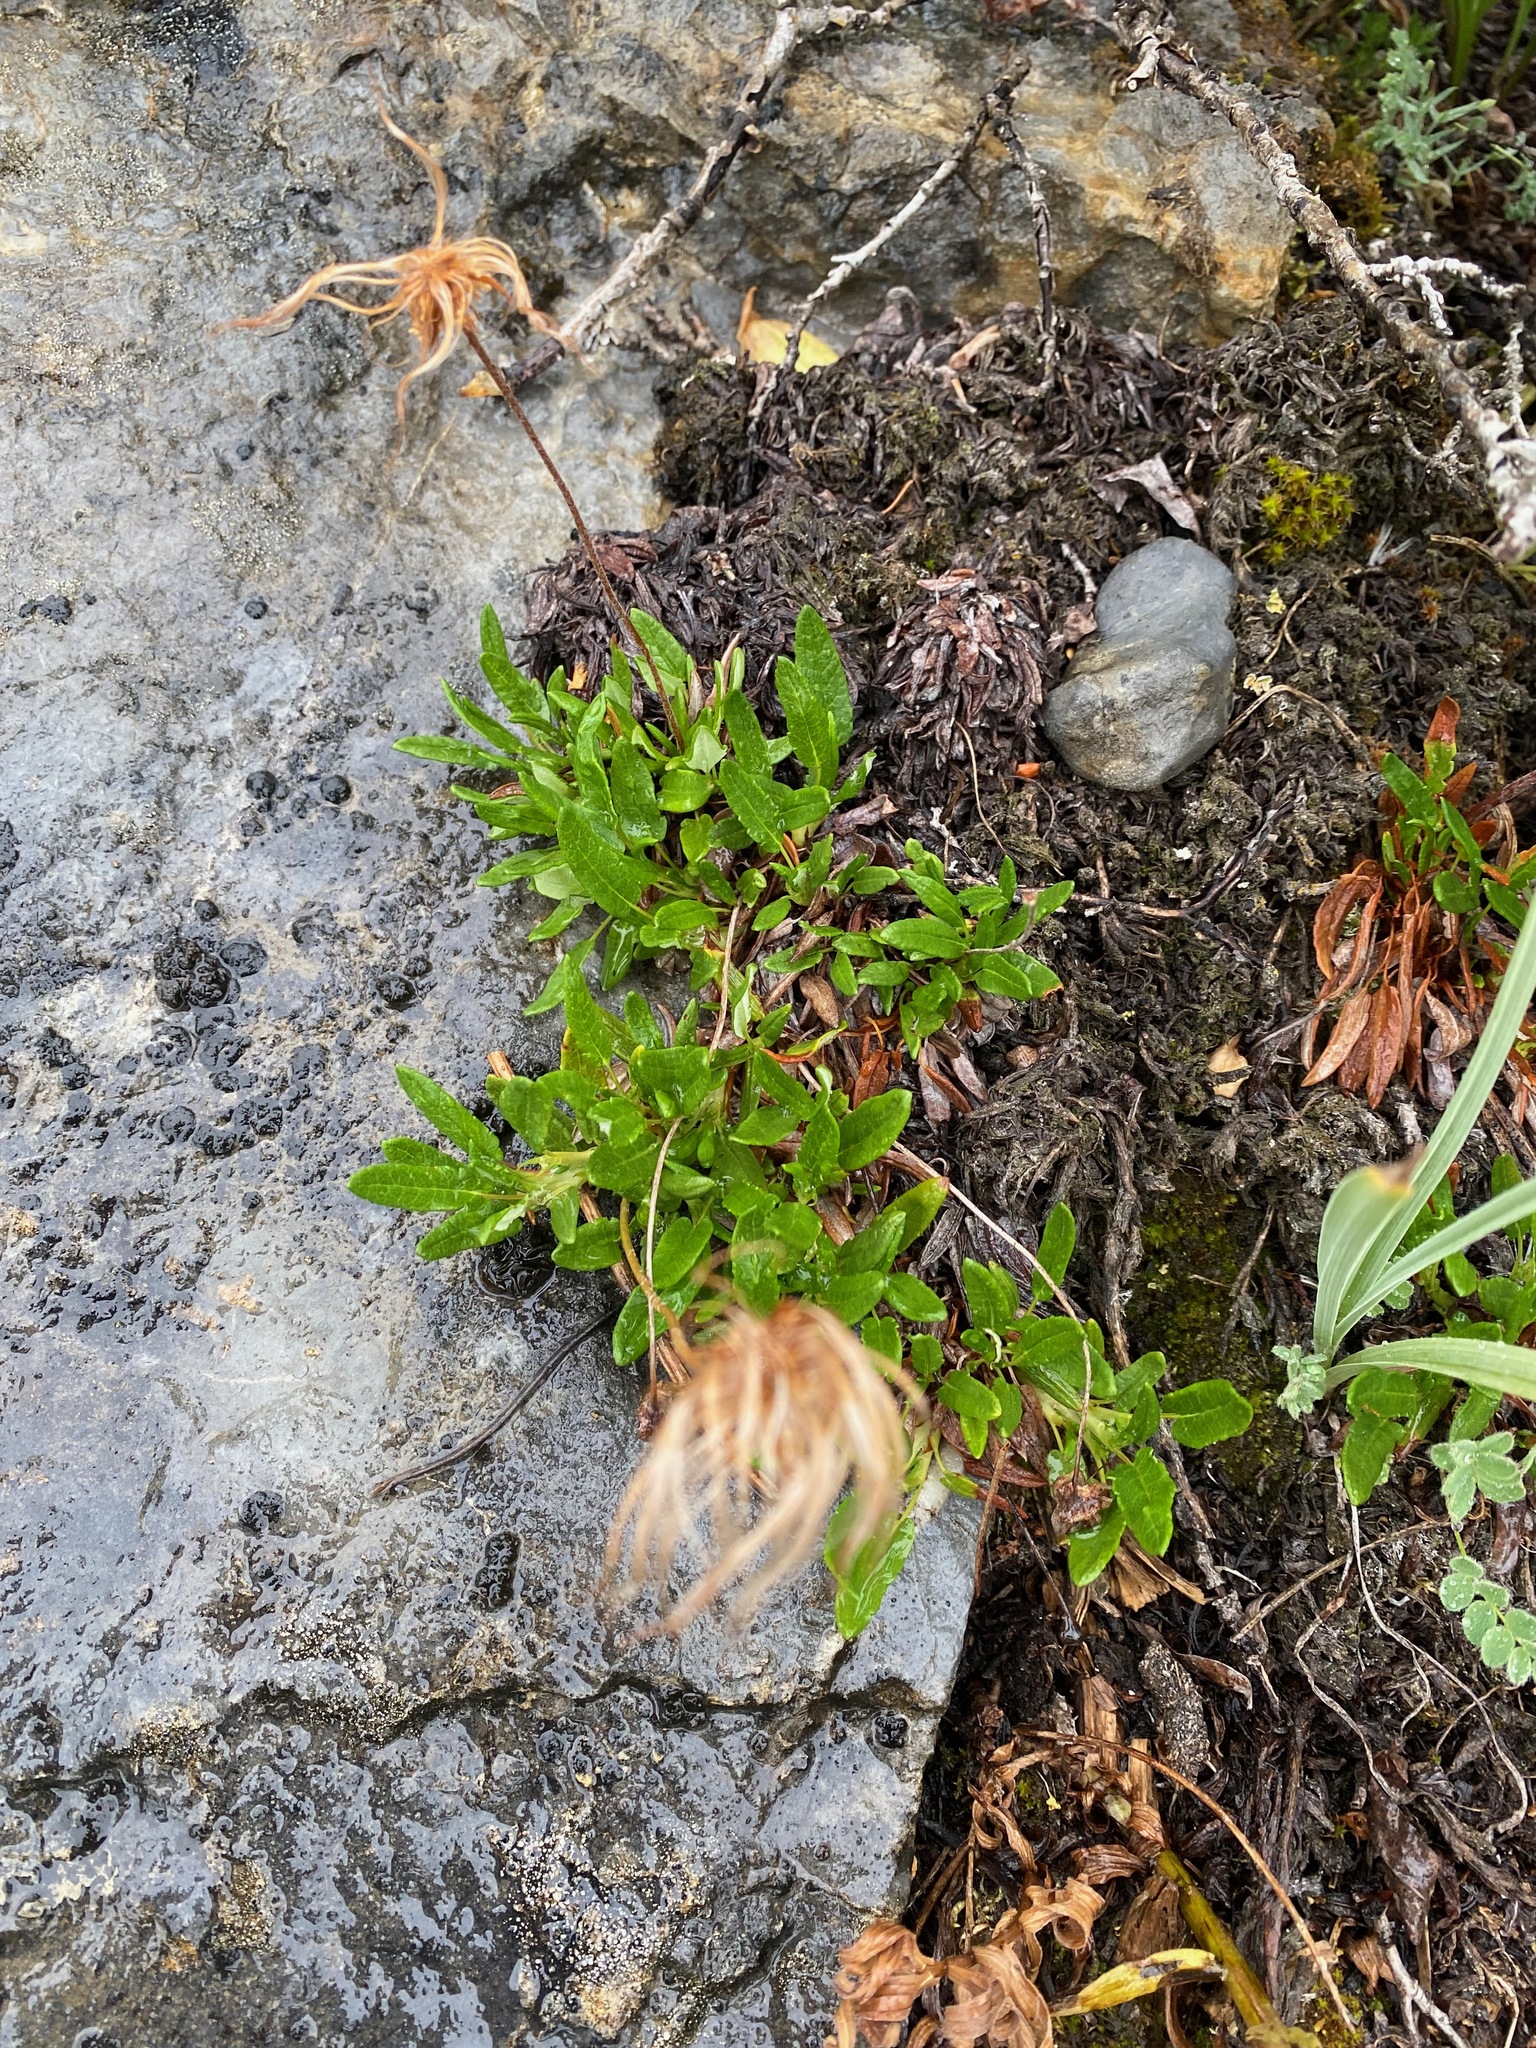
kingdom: Plantae
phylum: Tracheophyta
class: Magnoliopsida
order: Rosales
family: Rosaceae
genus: Dryas
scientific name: Dryas integrifolia
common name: Entire-leaved mountain avens
